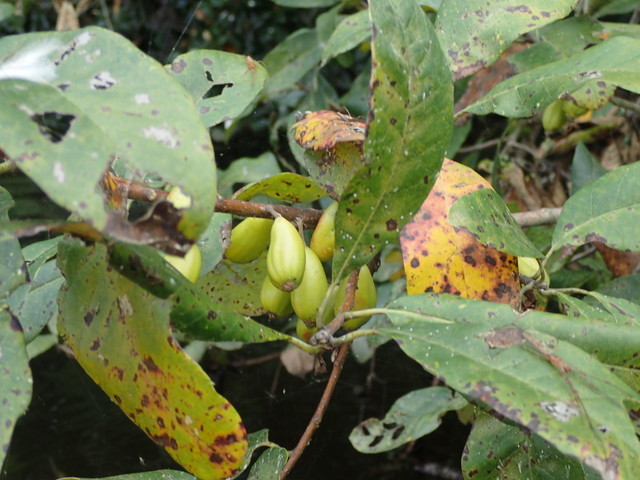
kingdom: Plantae
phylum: Tracheophyta
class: Magnoliopsida
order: Cornales
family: Nyssaceae
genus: Nyssa
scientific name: Nyssa ogeche
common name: Ogeechee tupelo
